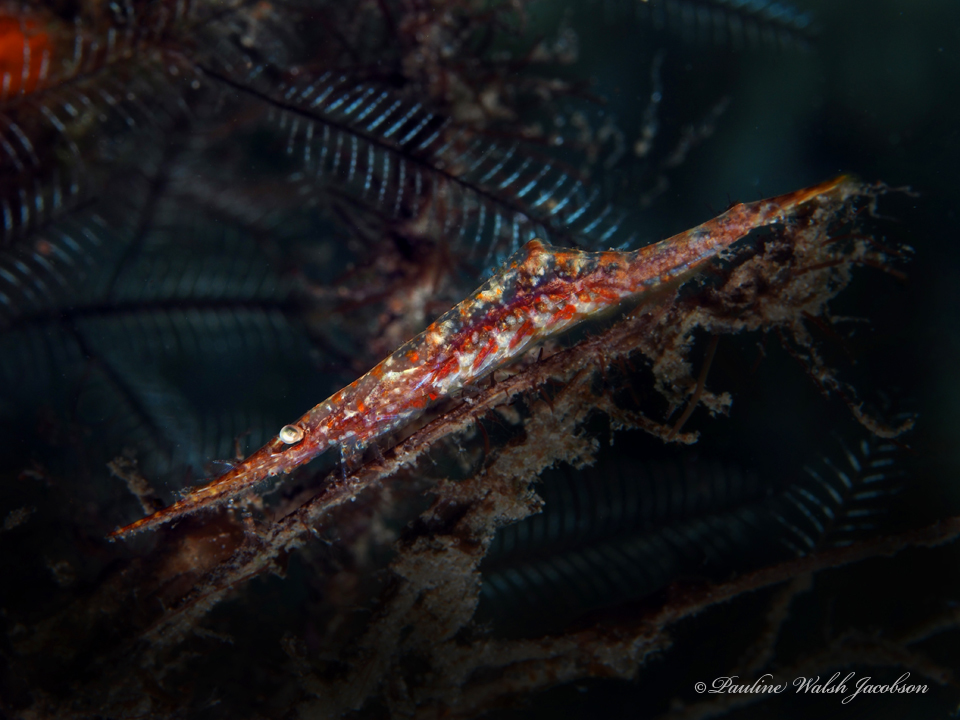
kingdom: Animalia
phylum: Arthropoda
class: Malacostraca
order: Decapoda
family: Hippolytidae
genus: Tozeuma
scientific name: Tozeuma serratum
